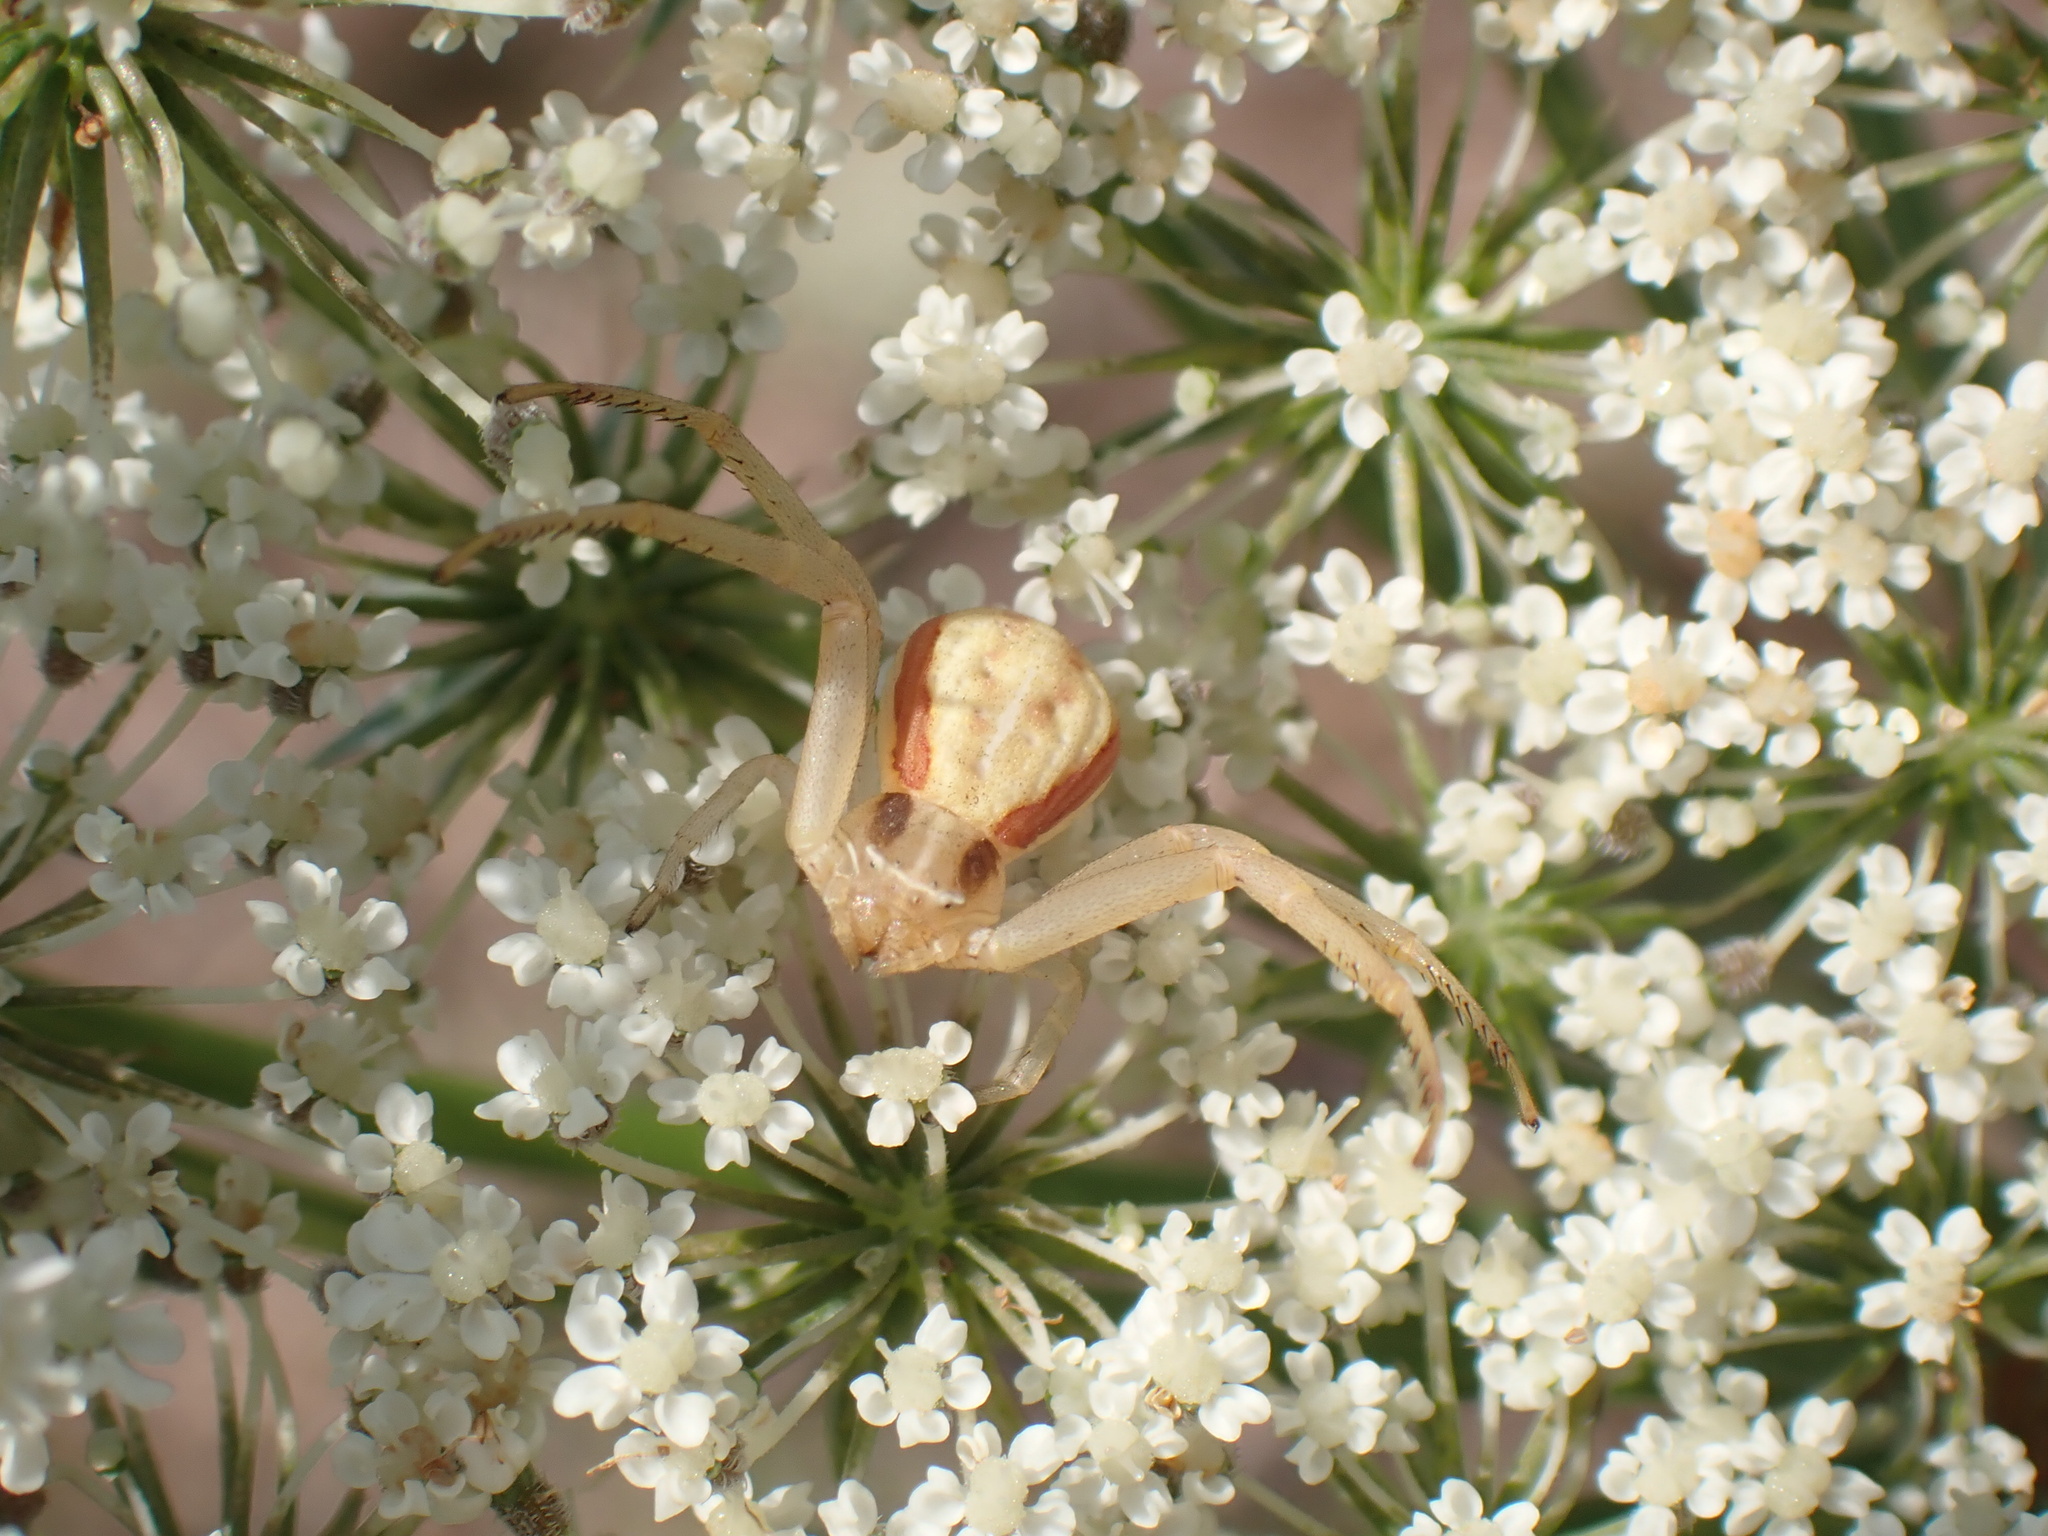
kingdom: Animalia
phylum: Arthropoda
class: Arachnida
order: Araneae
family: Thomisidae
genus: Runcinia
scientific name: Runcinia grammica
